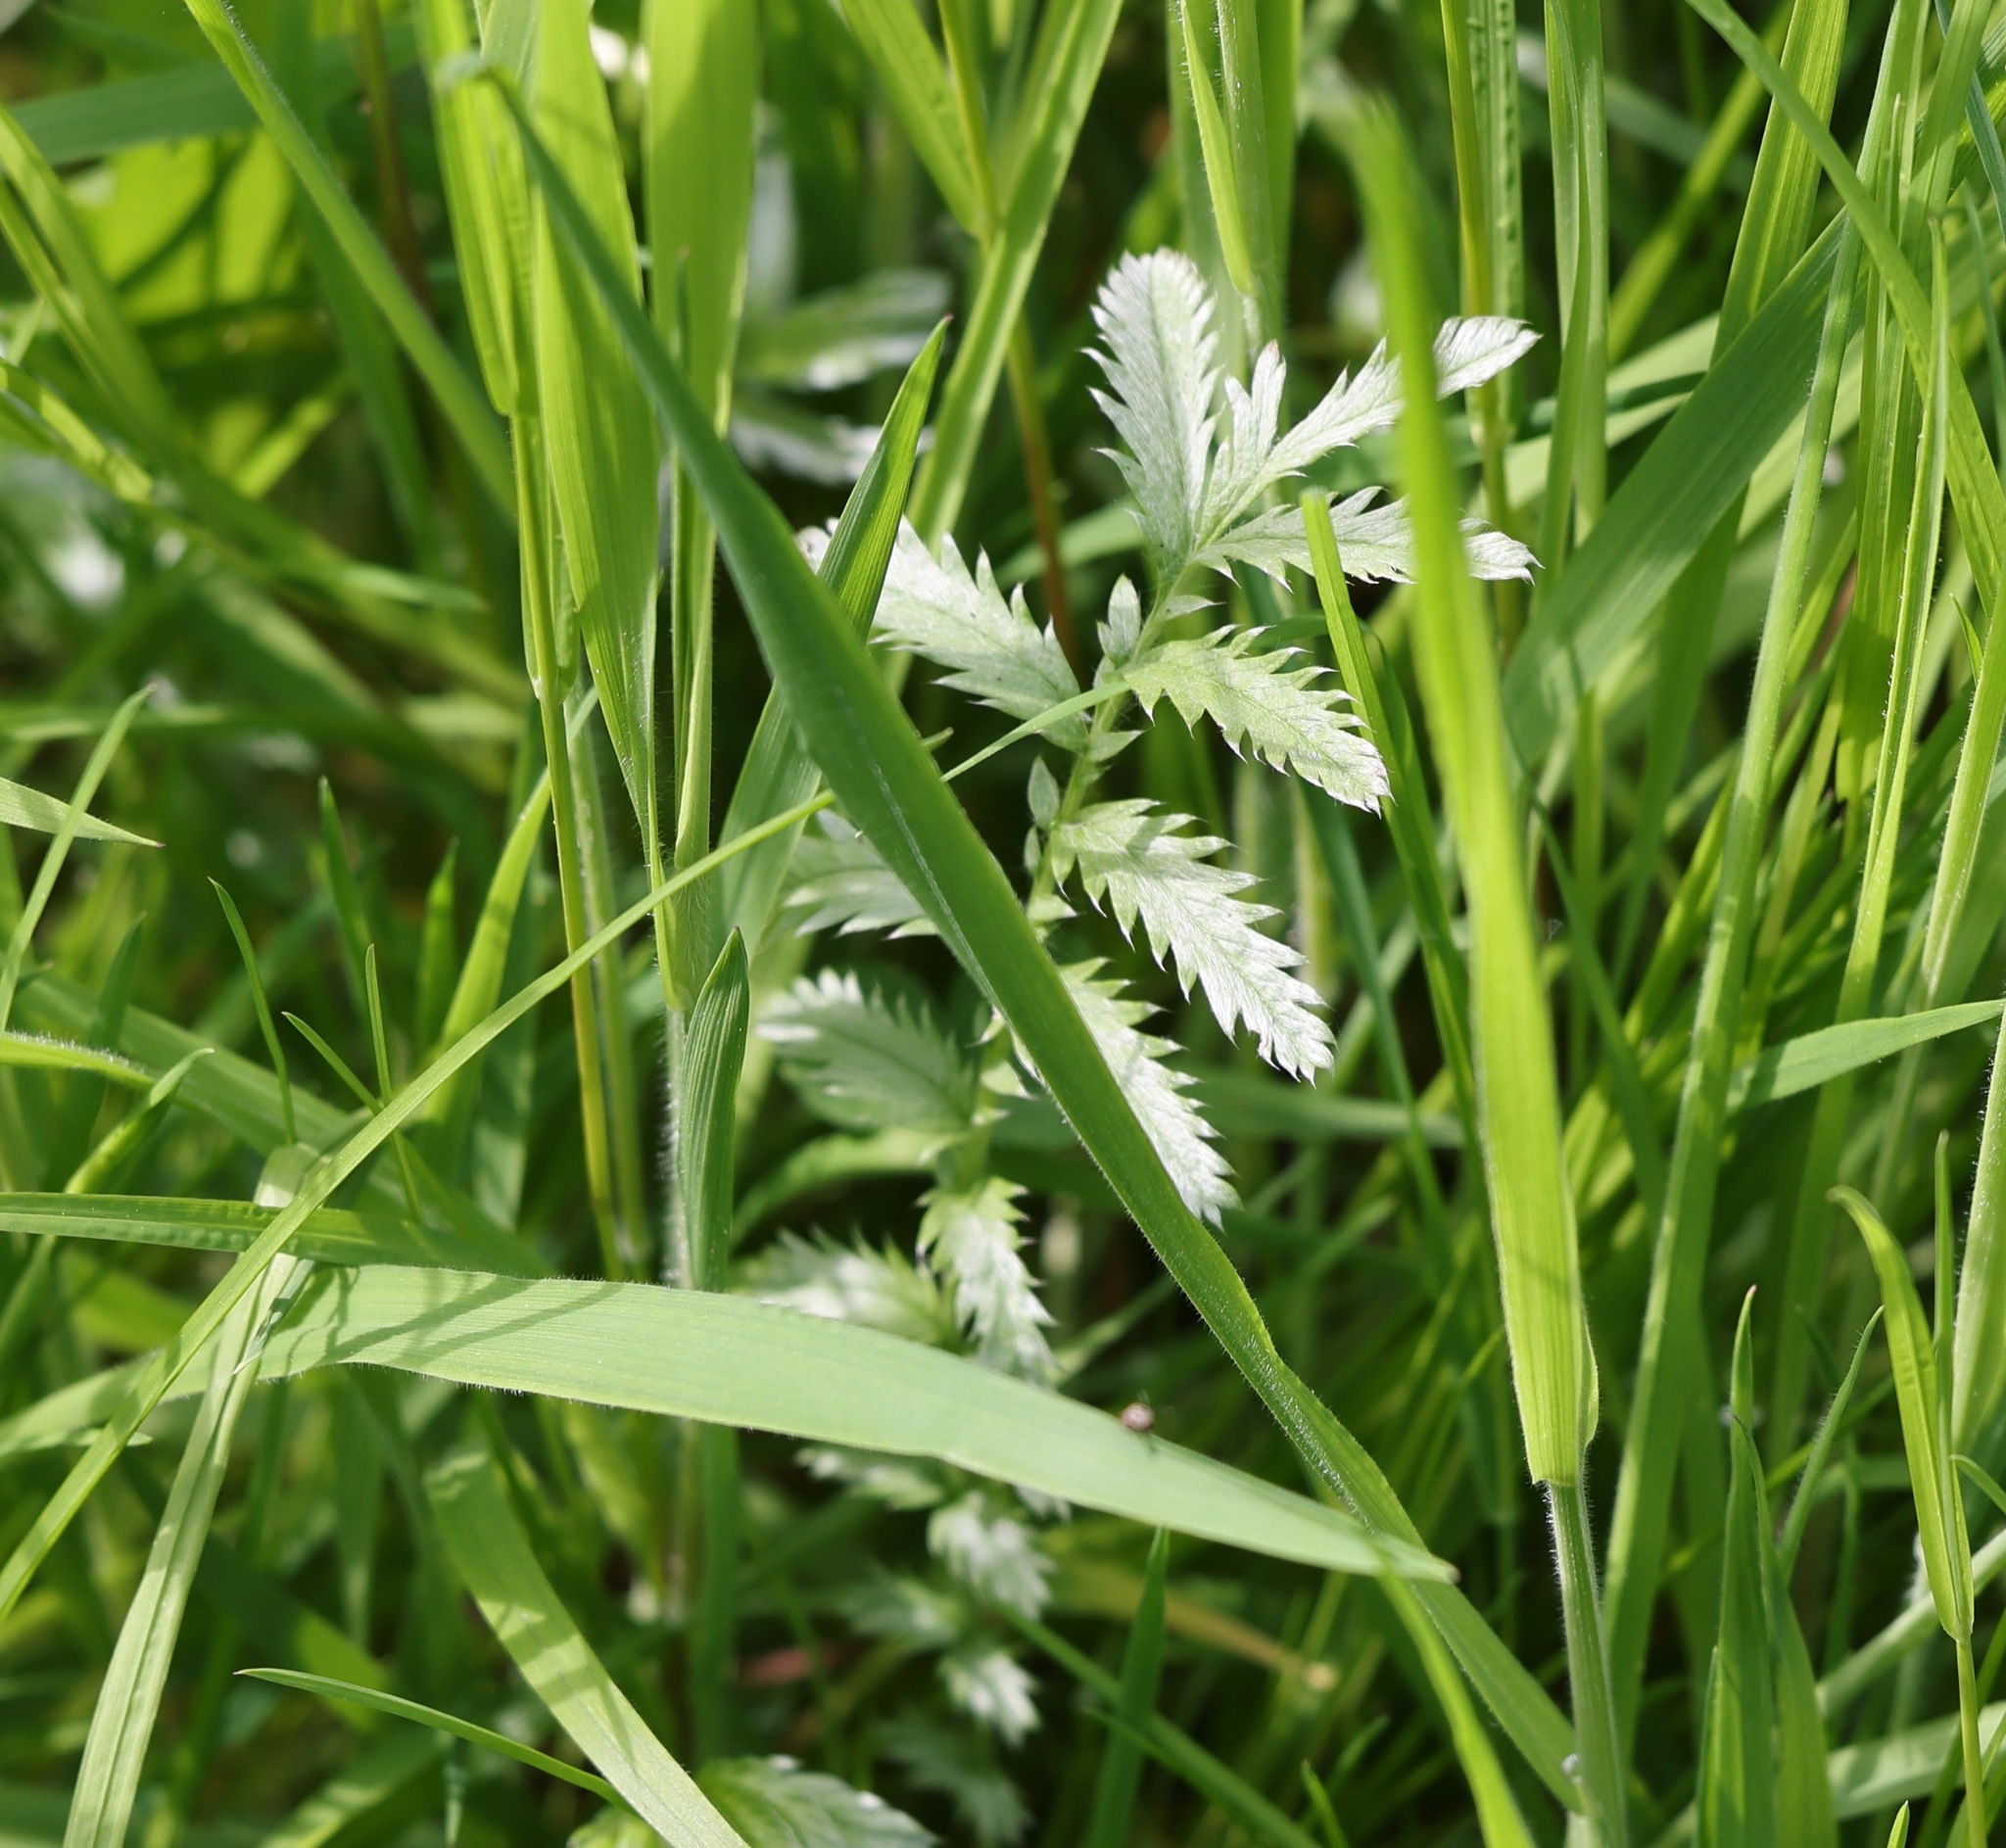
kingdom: Plantae
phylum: Tracheophyta
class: Magnoliopsida
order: Rosales
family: Rosaceae
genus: Argentina
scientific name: Argentina anserina
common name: Common silverweed
